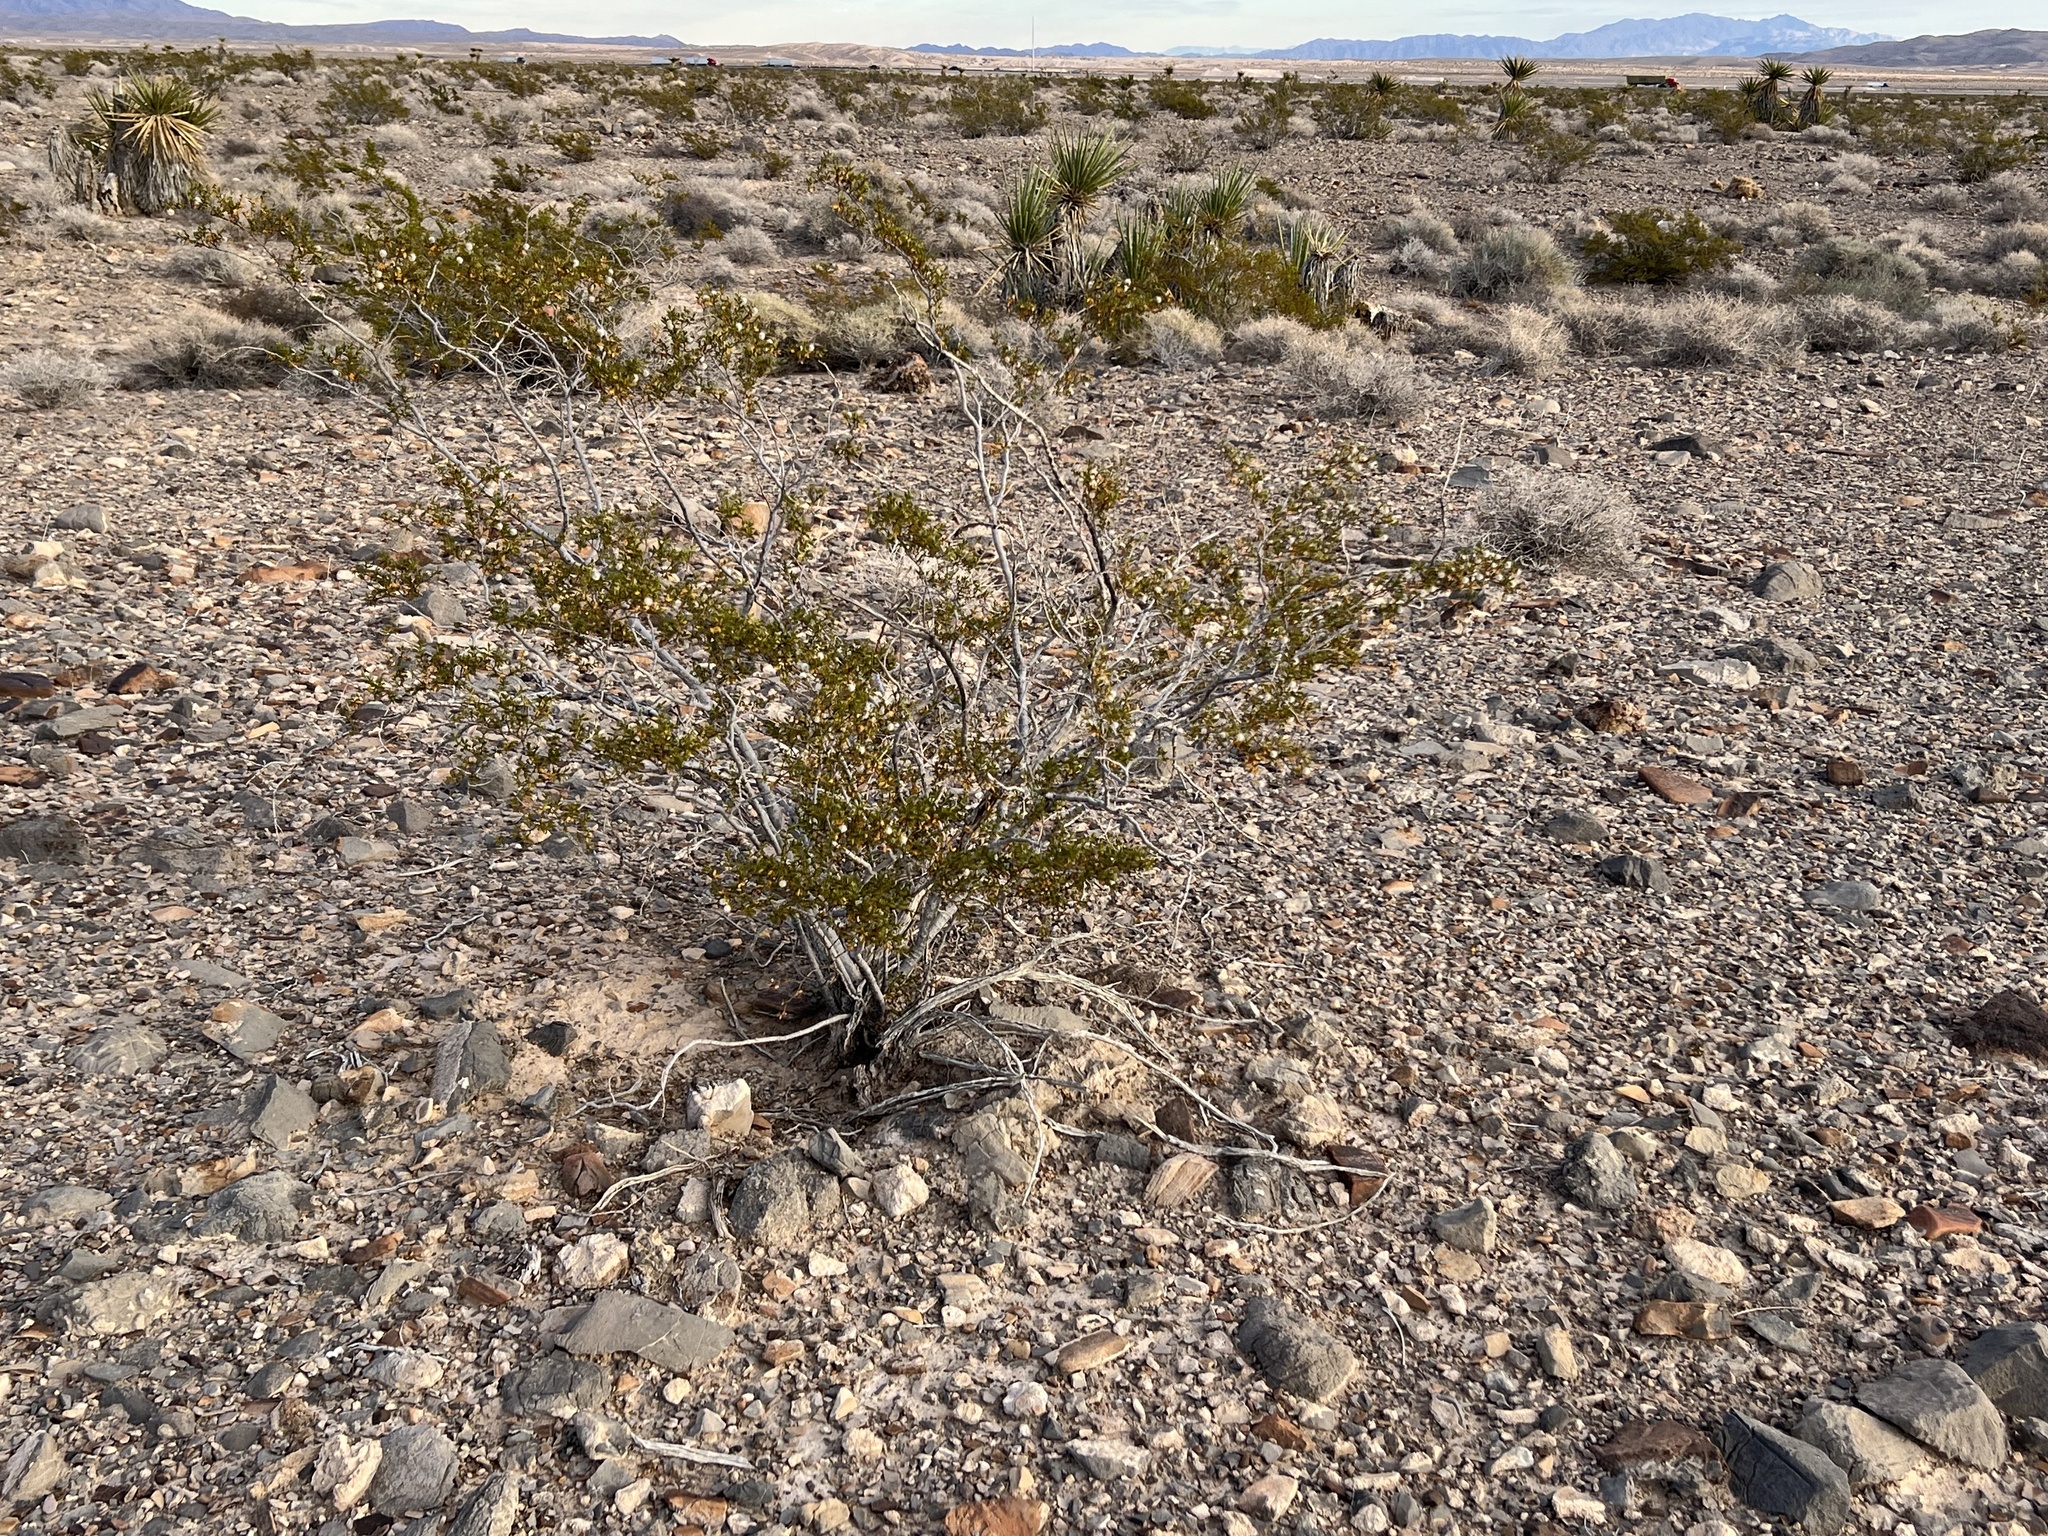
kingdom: Plantae
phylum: Tracheophyta
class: Magnoliopsida
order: Zygophyllales
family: Zygophyllaceae
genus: Larrea
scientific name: Larrea tridentata
